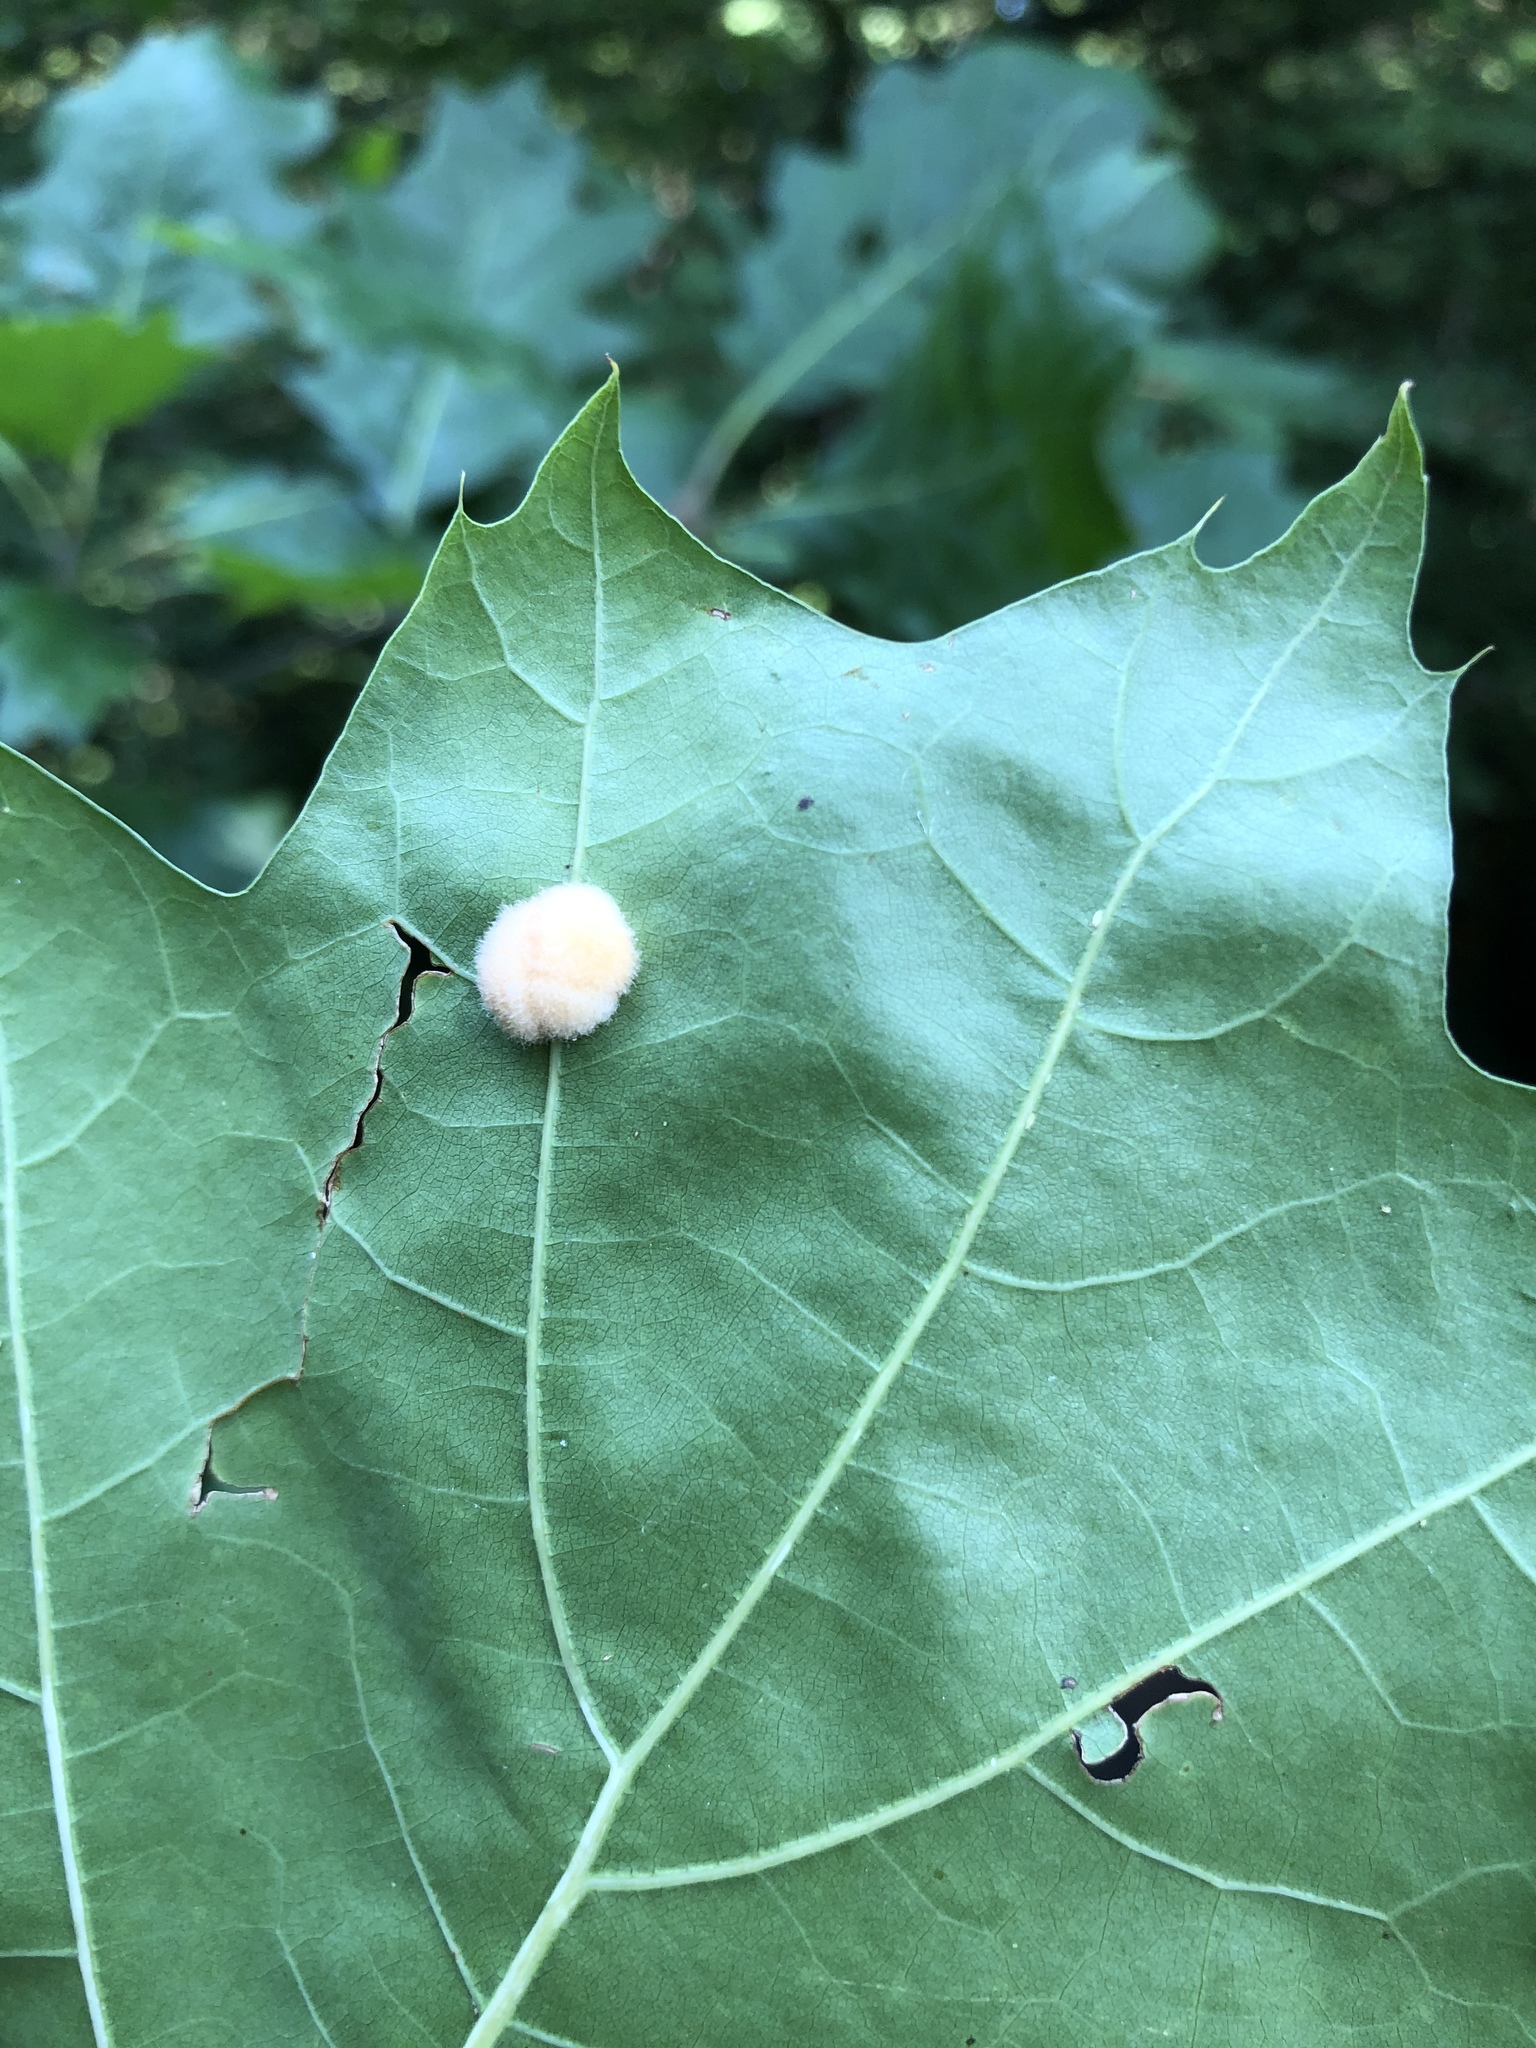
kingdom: Animalia
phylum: Arthropoda
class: Insecta
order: Hymenoptera
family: Cynipidae
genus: Callirhytis
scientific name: Callirhytis
